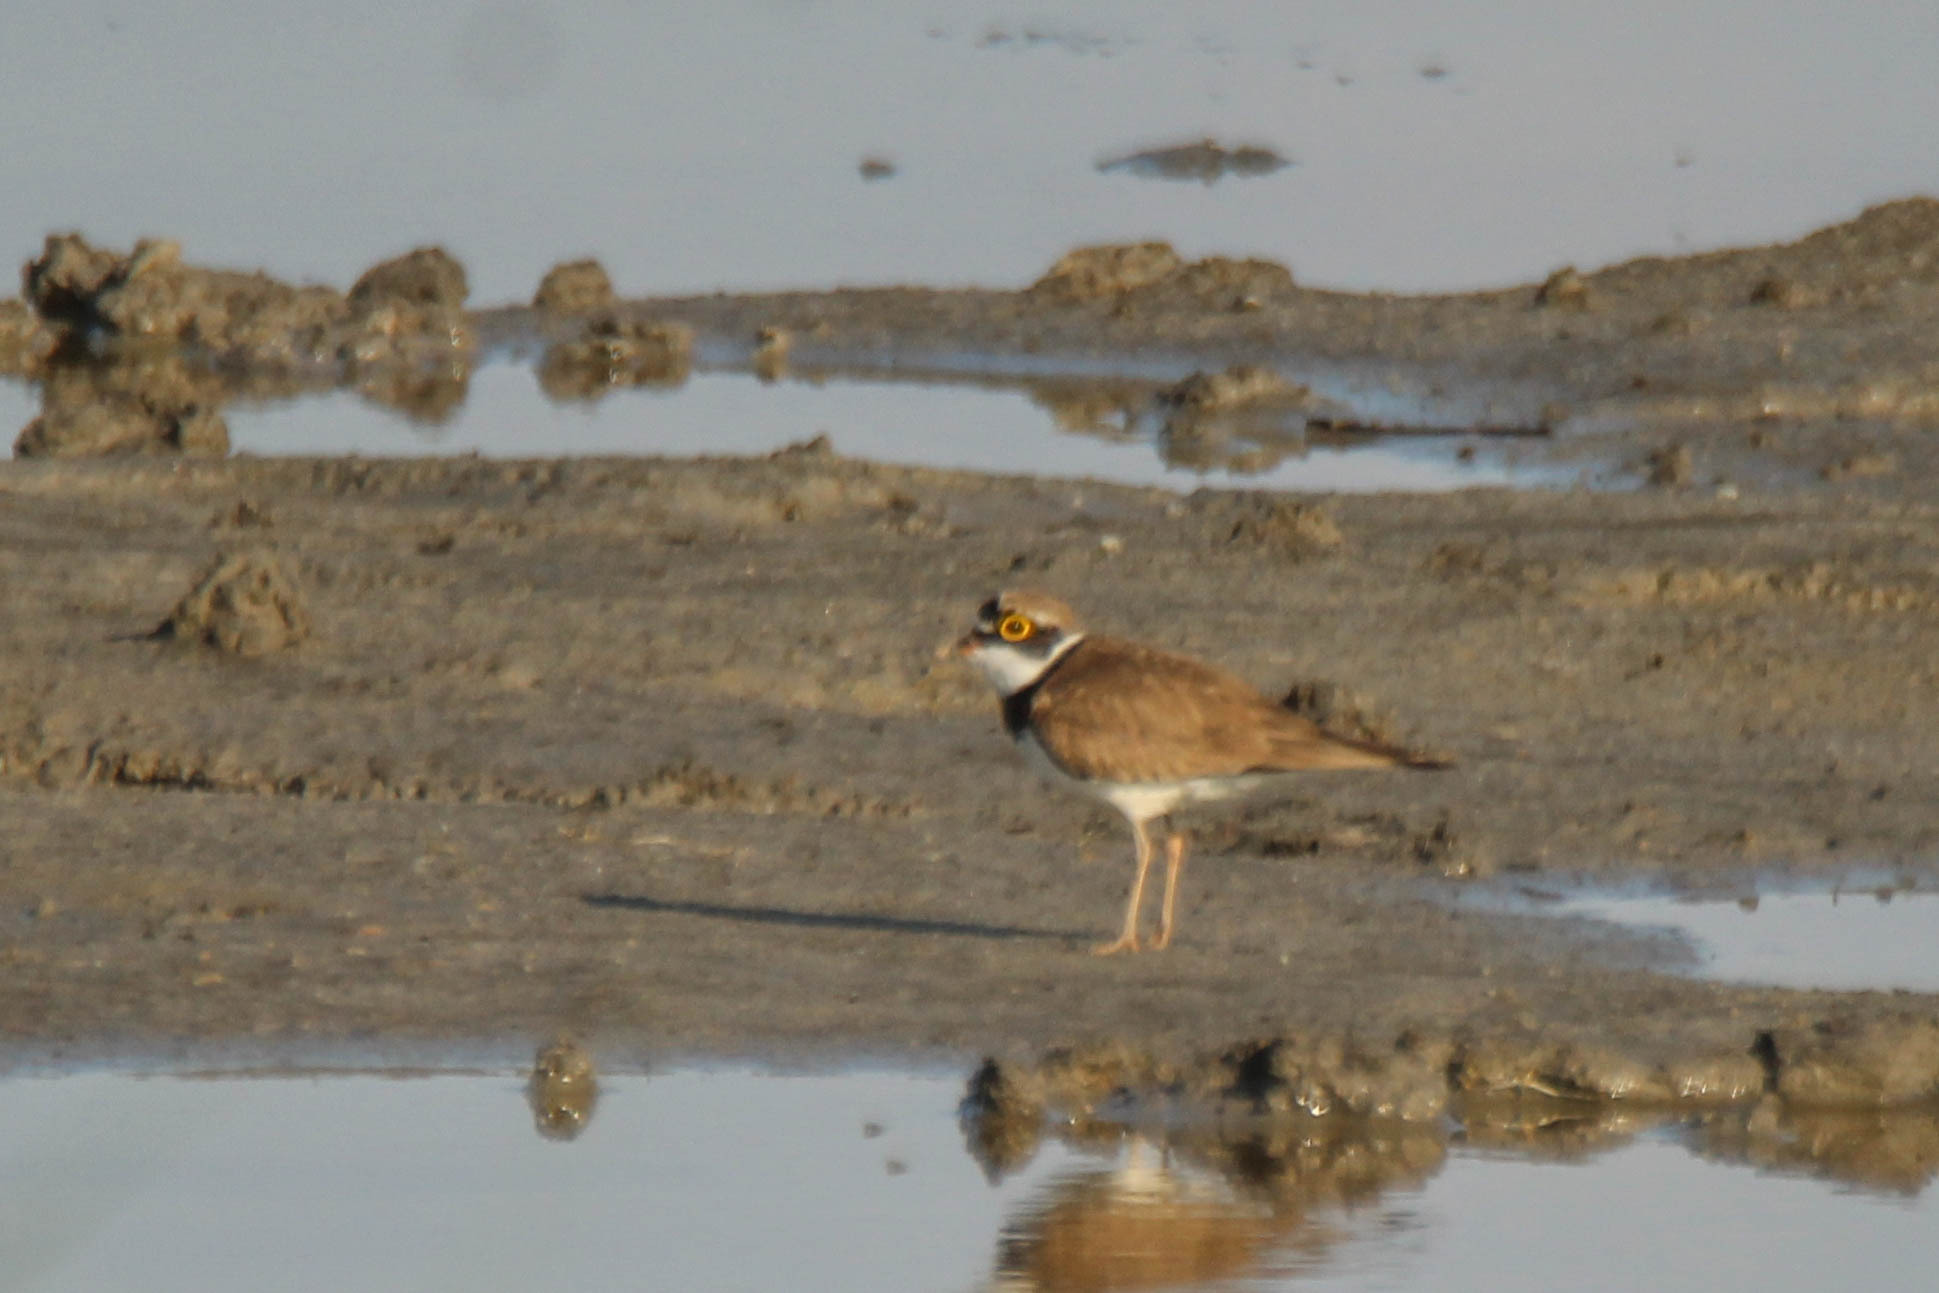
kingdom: Animalia
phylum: Chordata
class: Aves
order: Charadriiformes
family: Charadriidae
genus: Charadrius
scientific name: Charadrius dubius
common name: Little ringed plover
